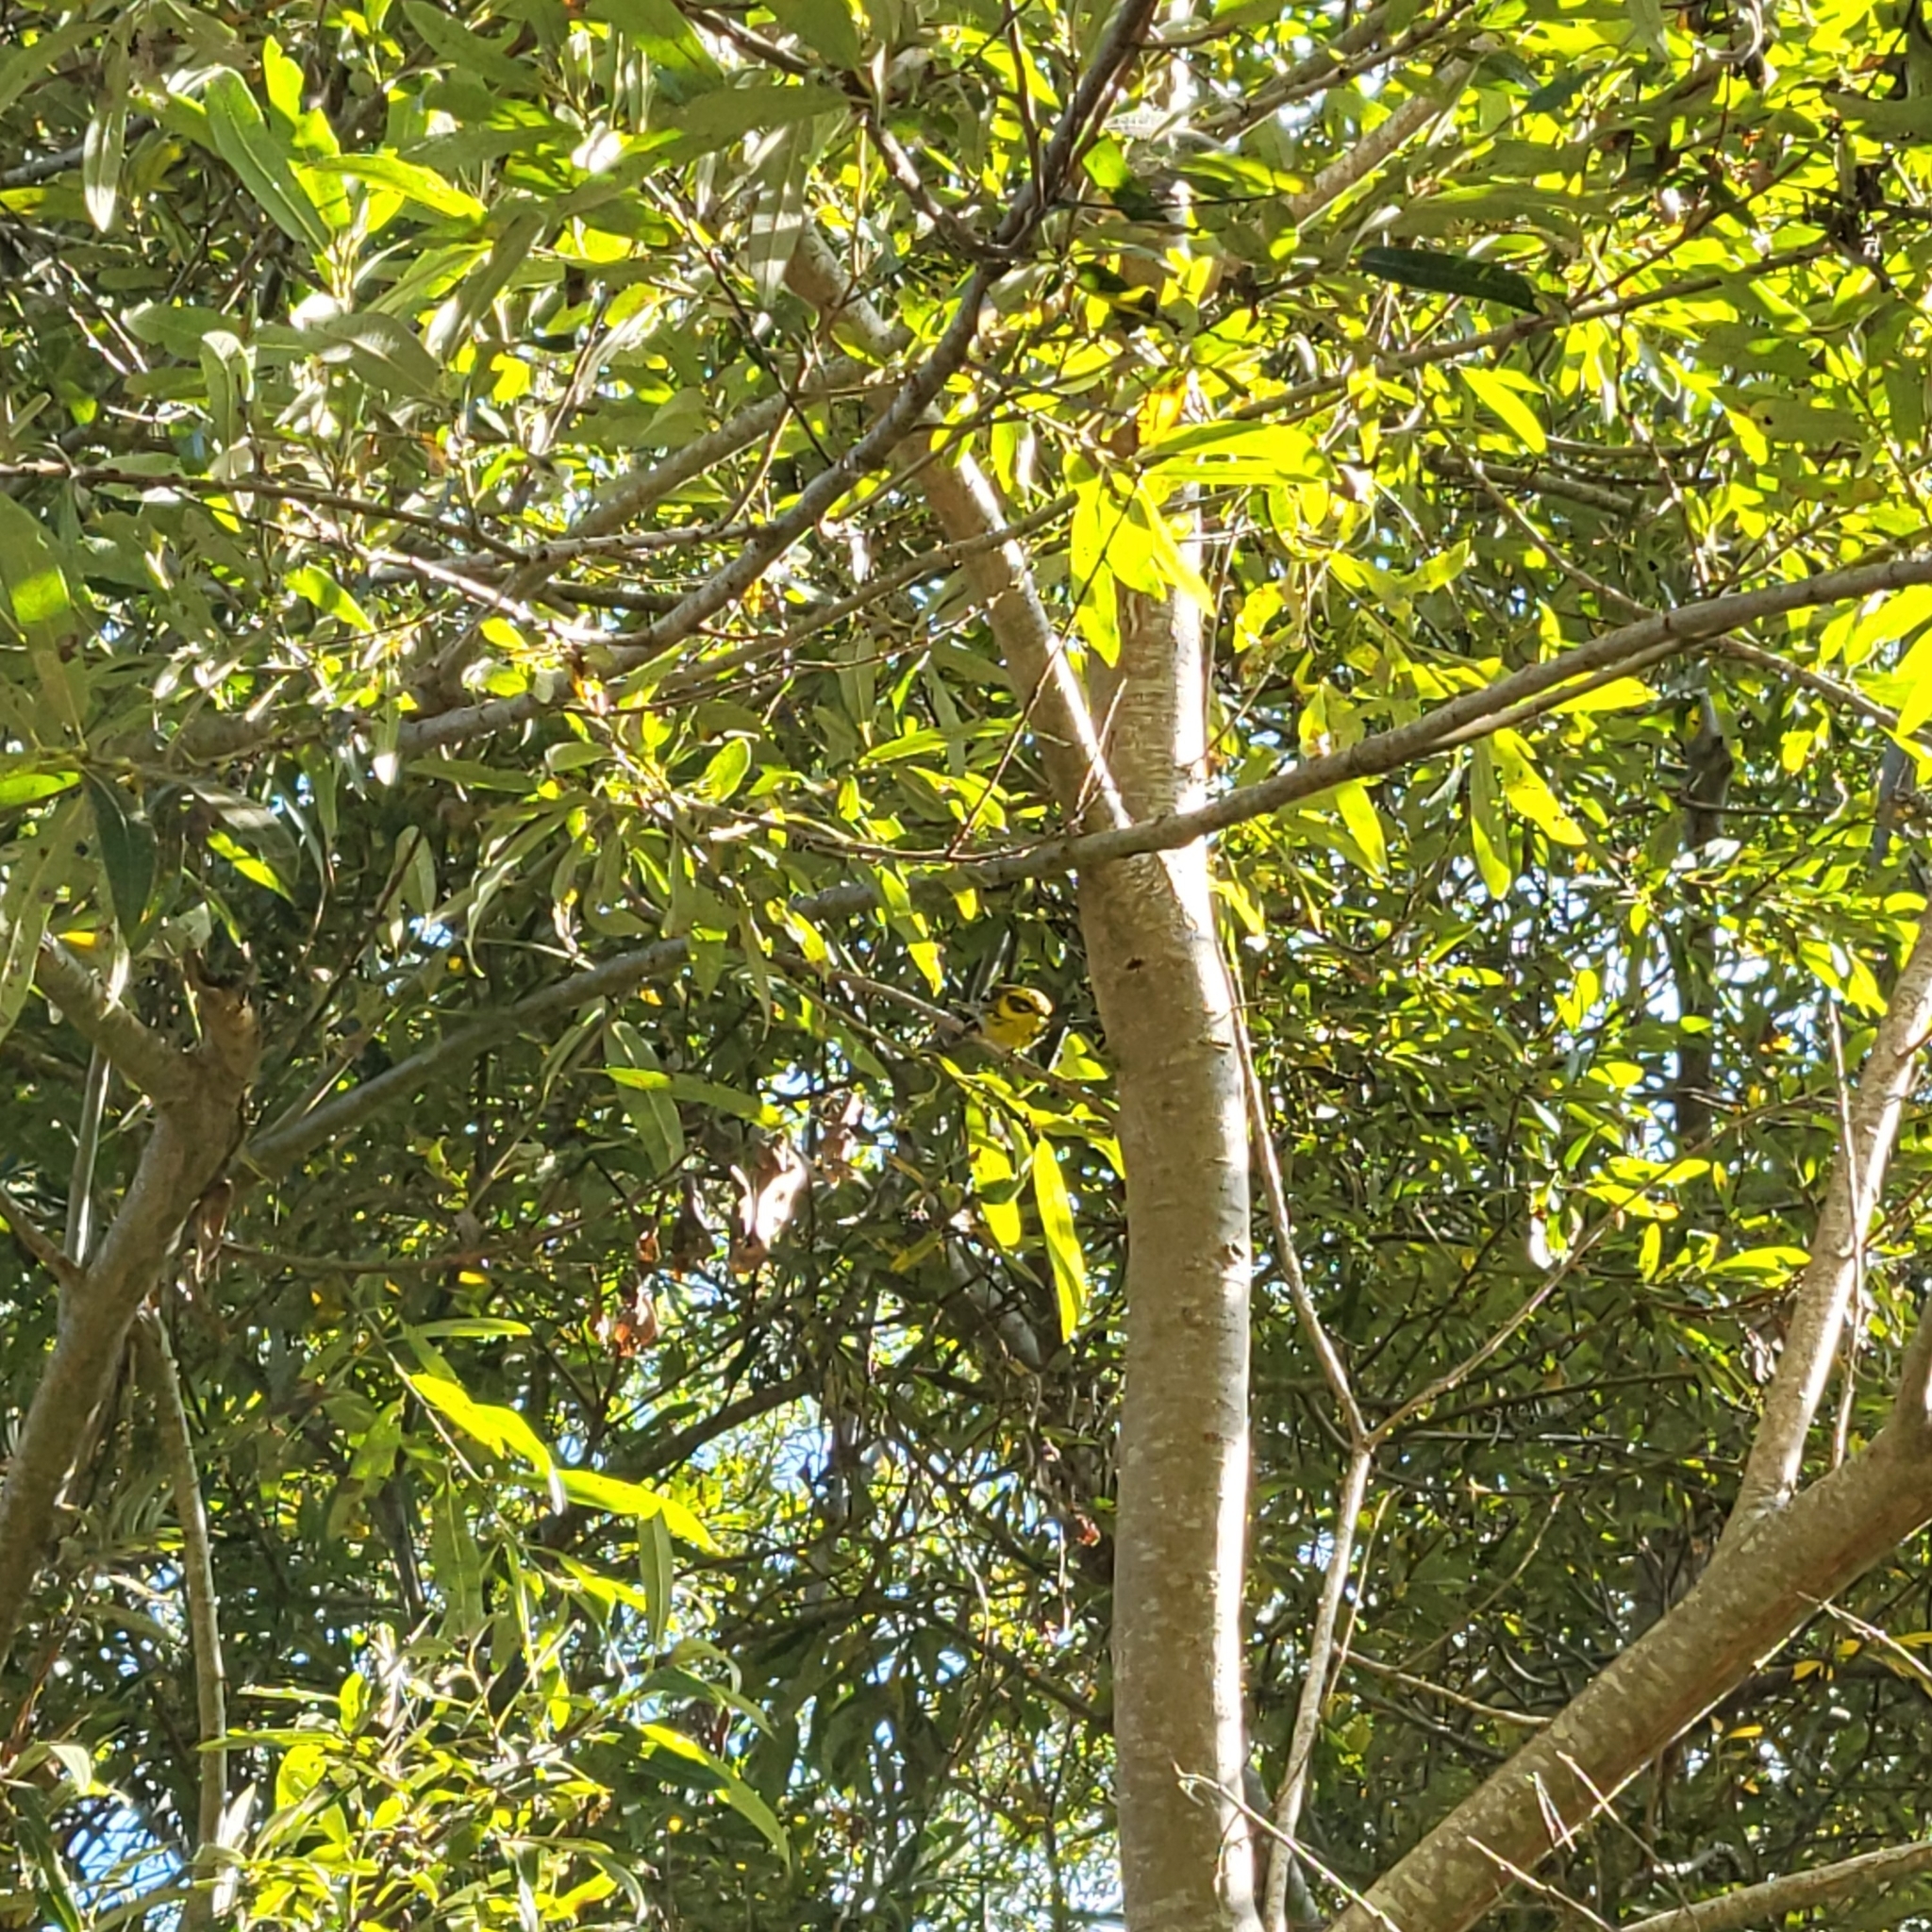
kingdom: Animalia
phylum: Chordata
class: Aves
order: Passeriformes
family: Parulidae
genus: Setophaga
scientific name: Setophaga townsendi
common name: Townsend's warbler
